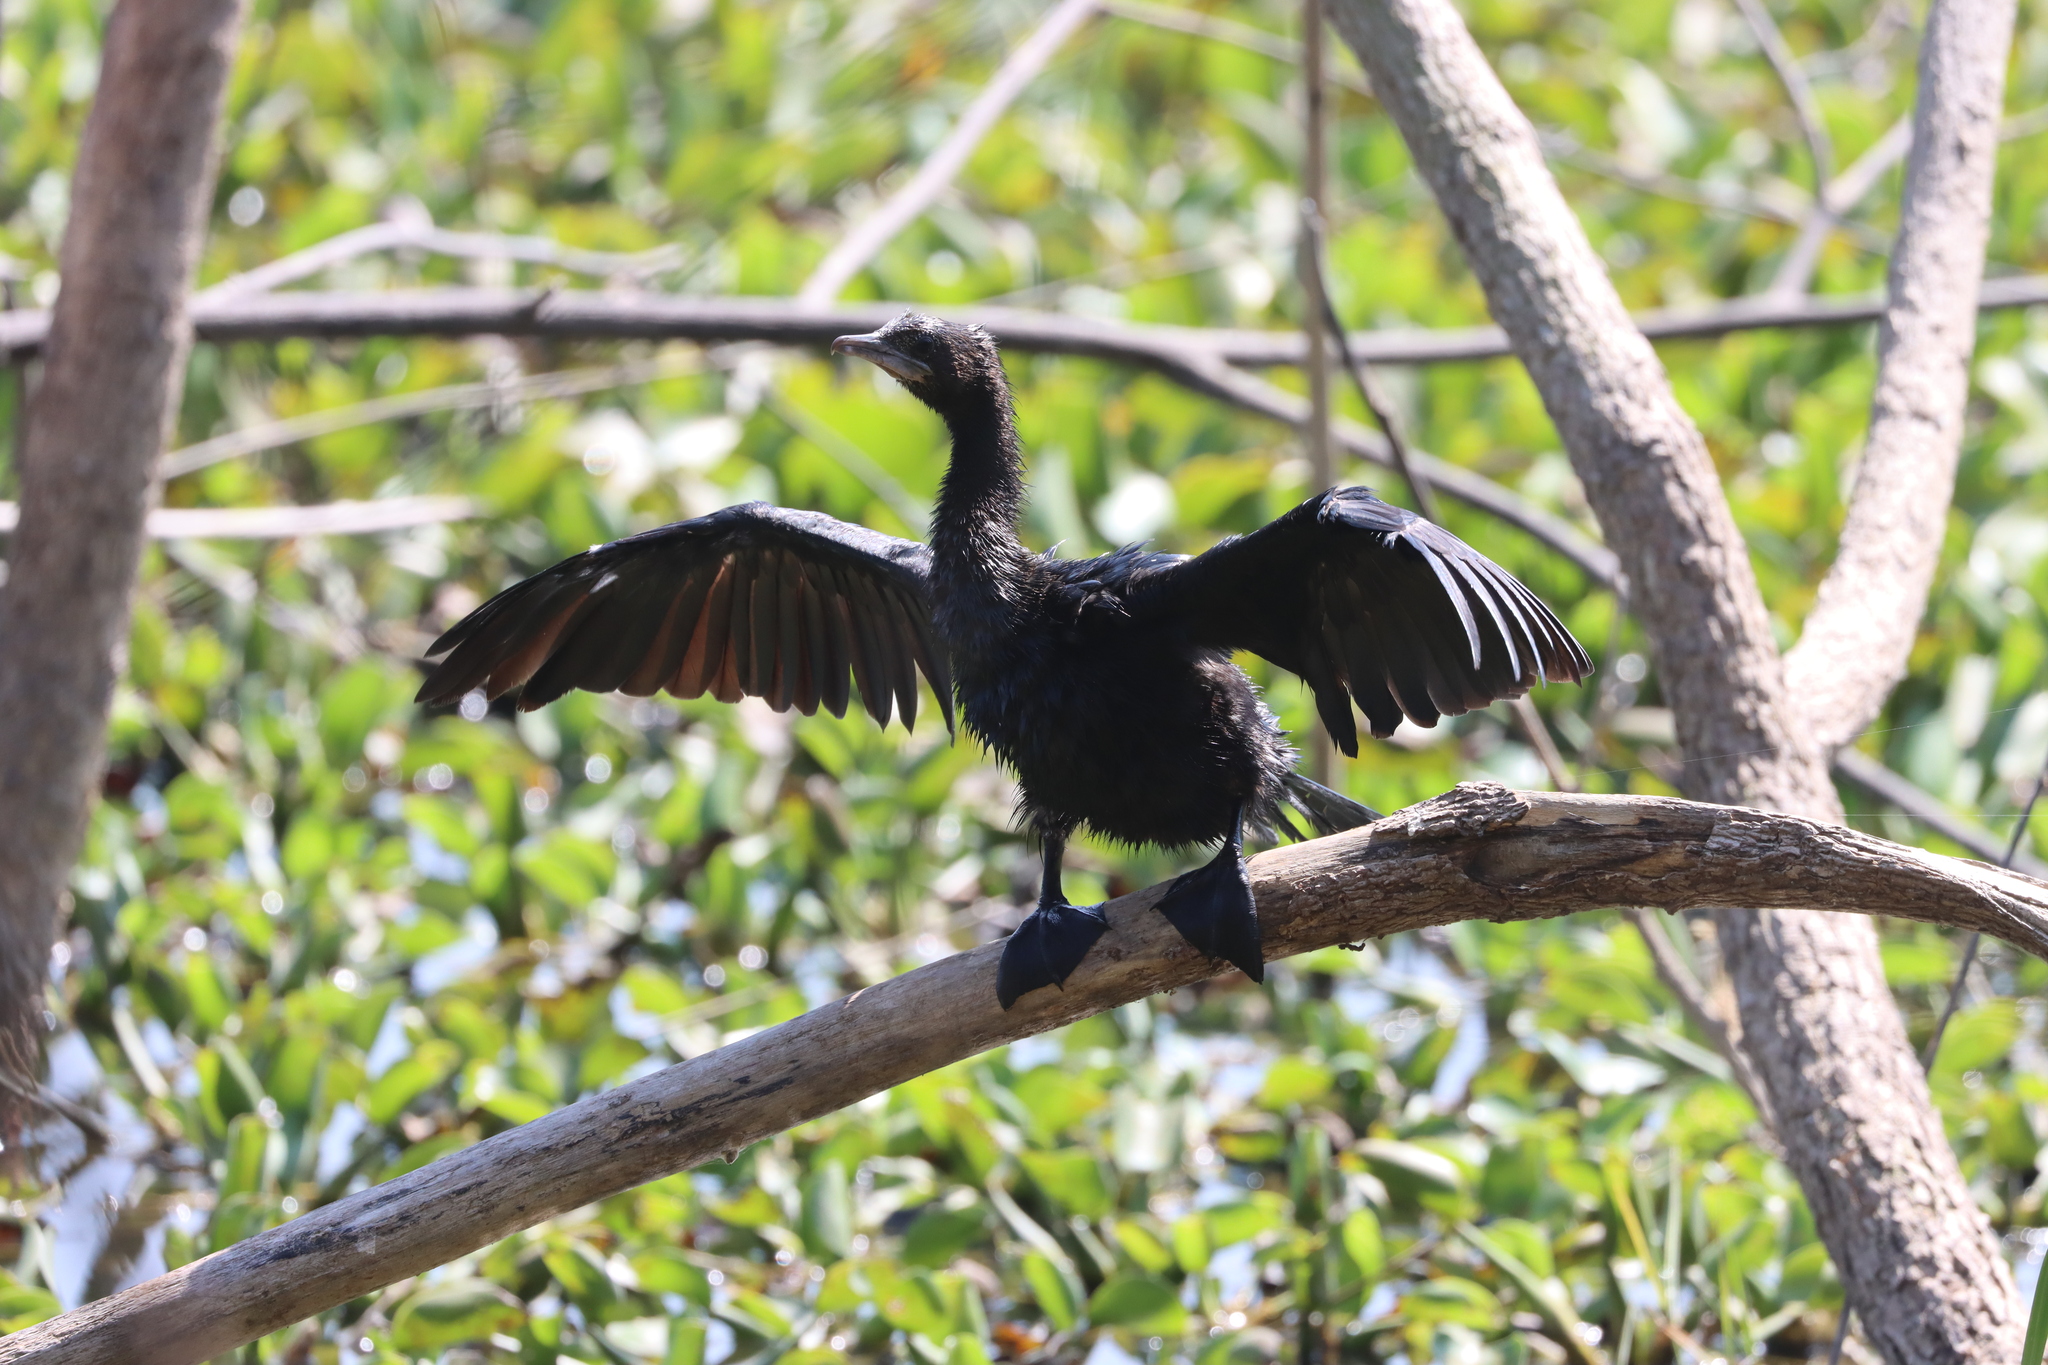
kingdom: Animalia
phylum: Chordata
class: Aves
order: Suliformes
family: Phalacrocoracidae
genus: Microcarbo
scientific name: Microcarbo niger
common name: Little cormorant
